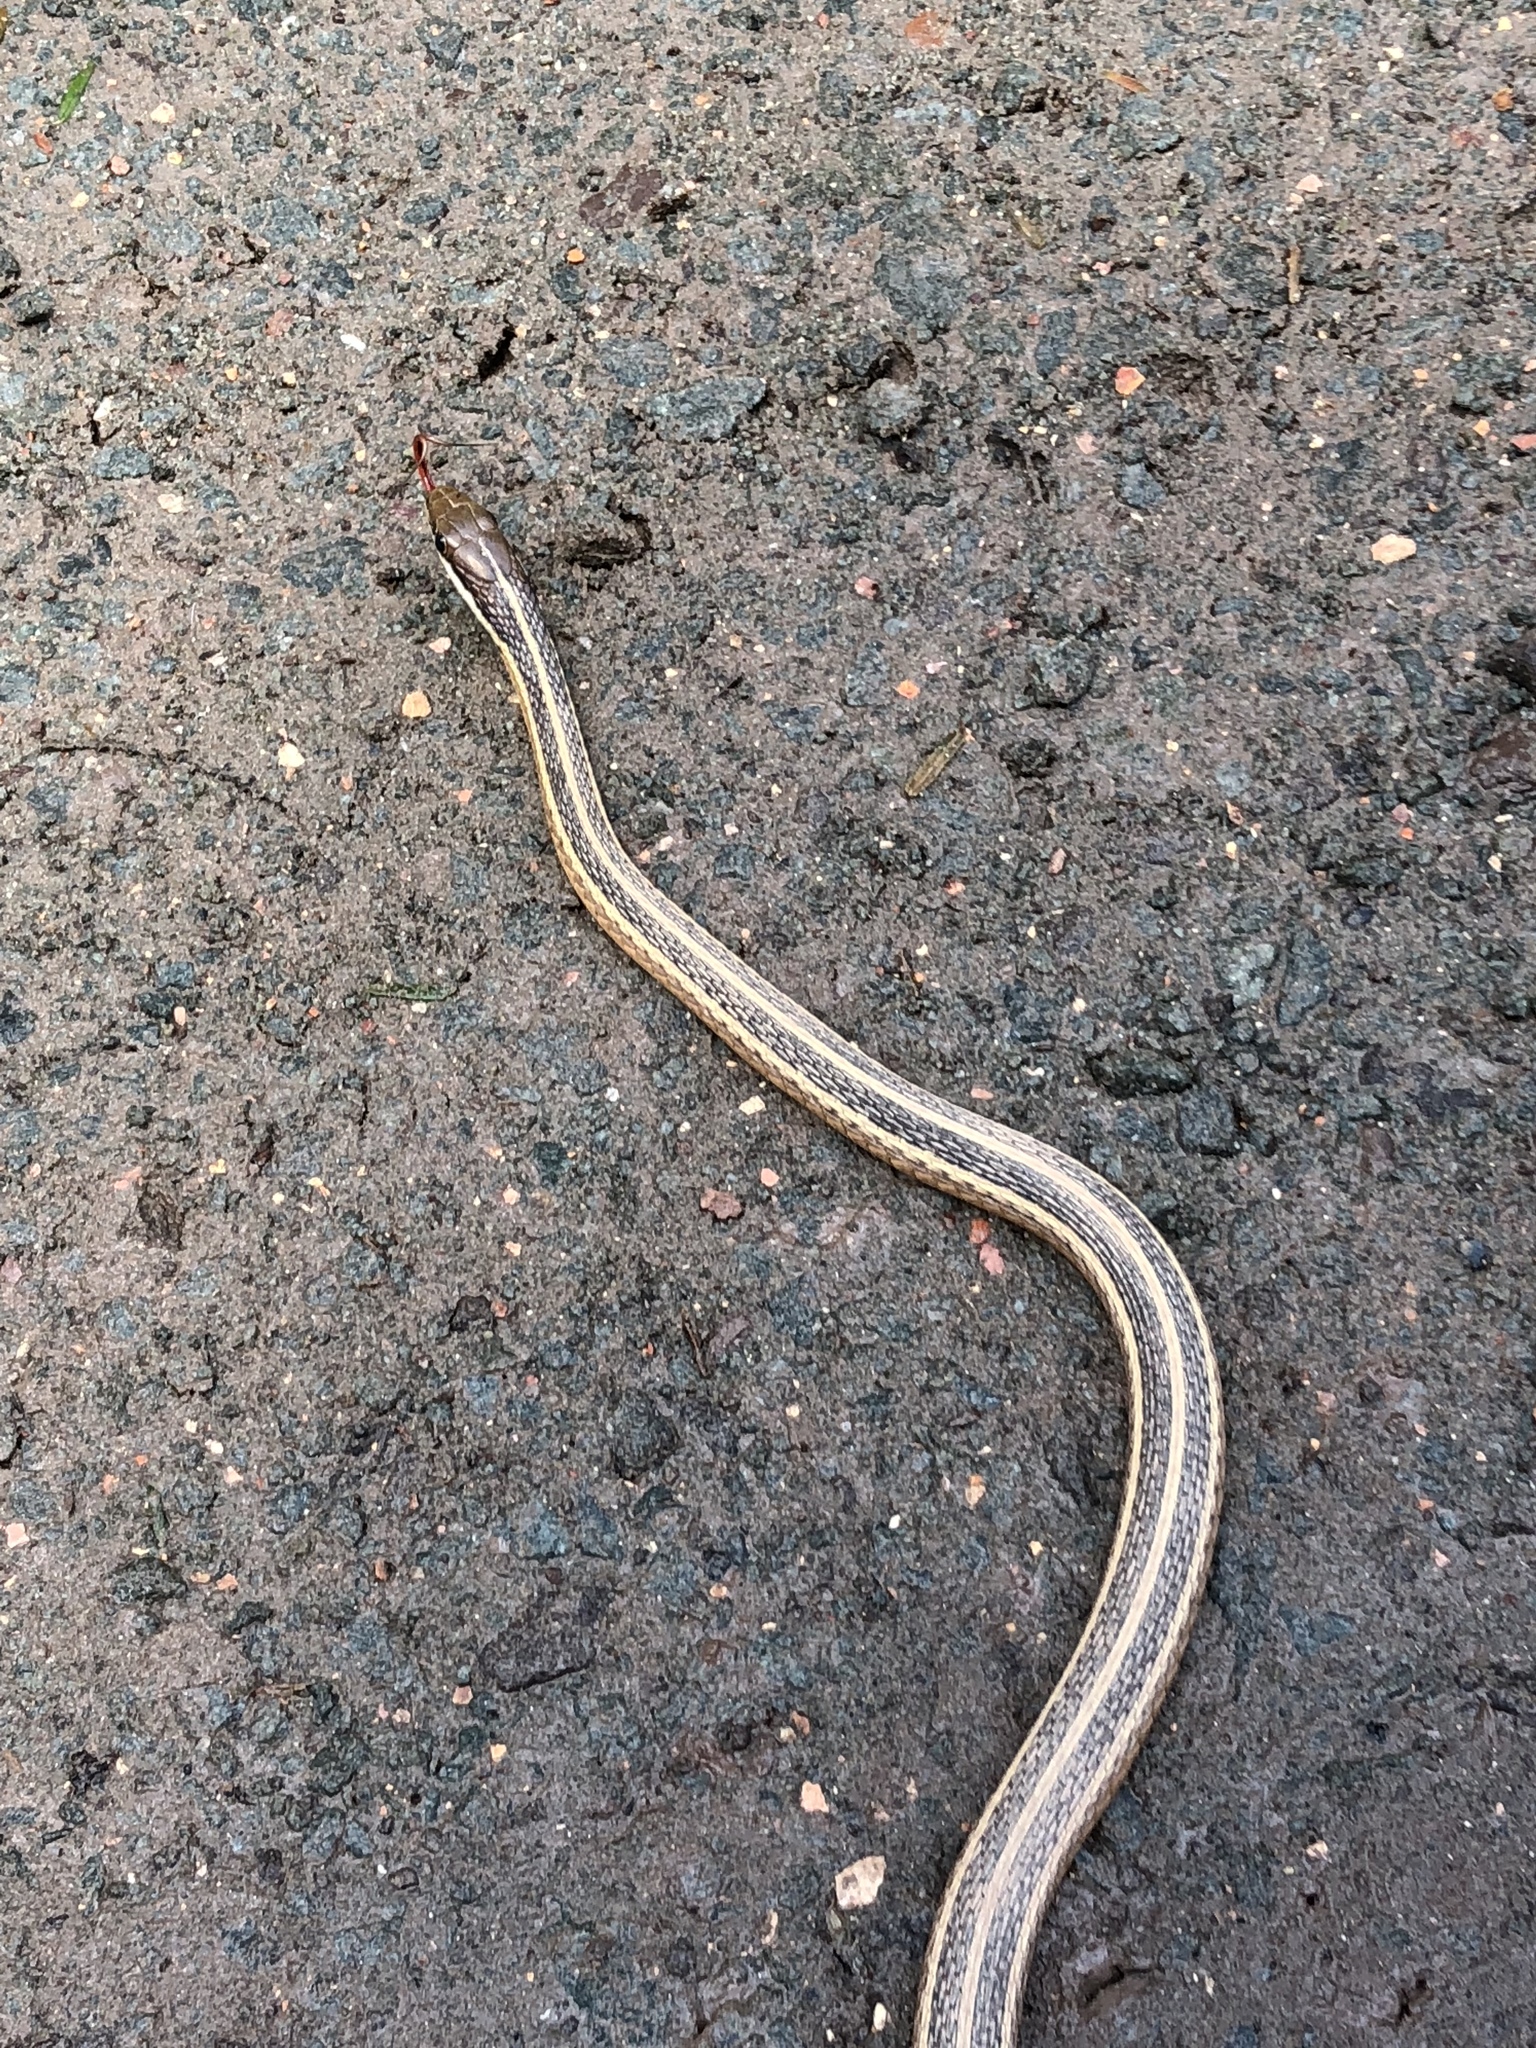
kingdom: Animalia
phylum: Chordata
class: Squamata
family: Colubridae
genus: Thamnophis
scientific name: Thamnophis saurita
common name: Eastern ribbonsnake
